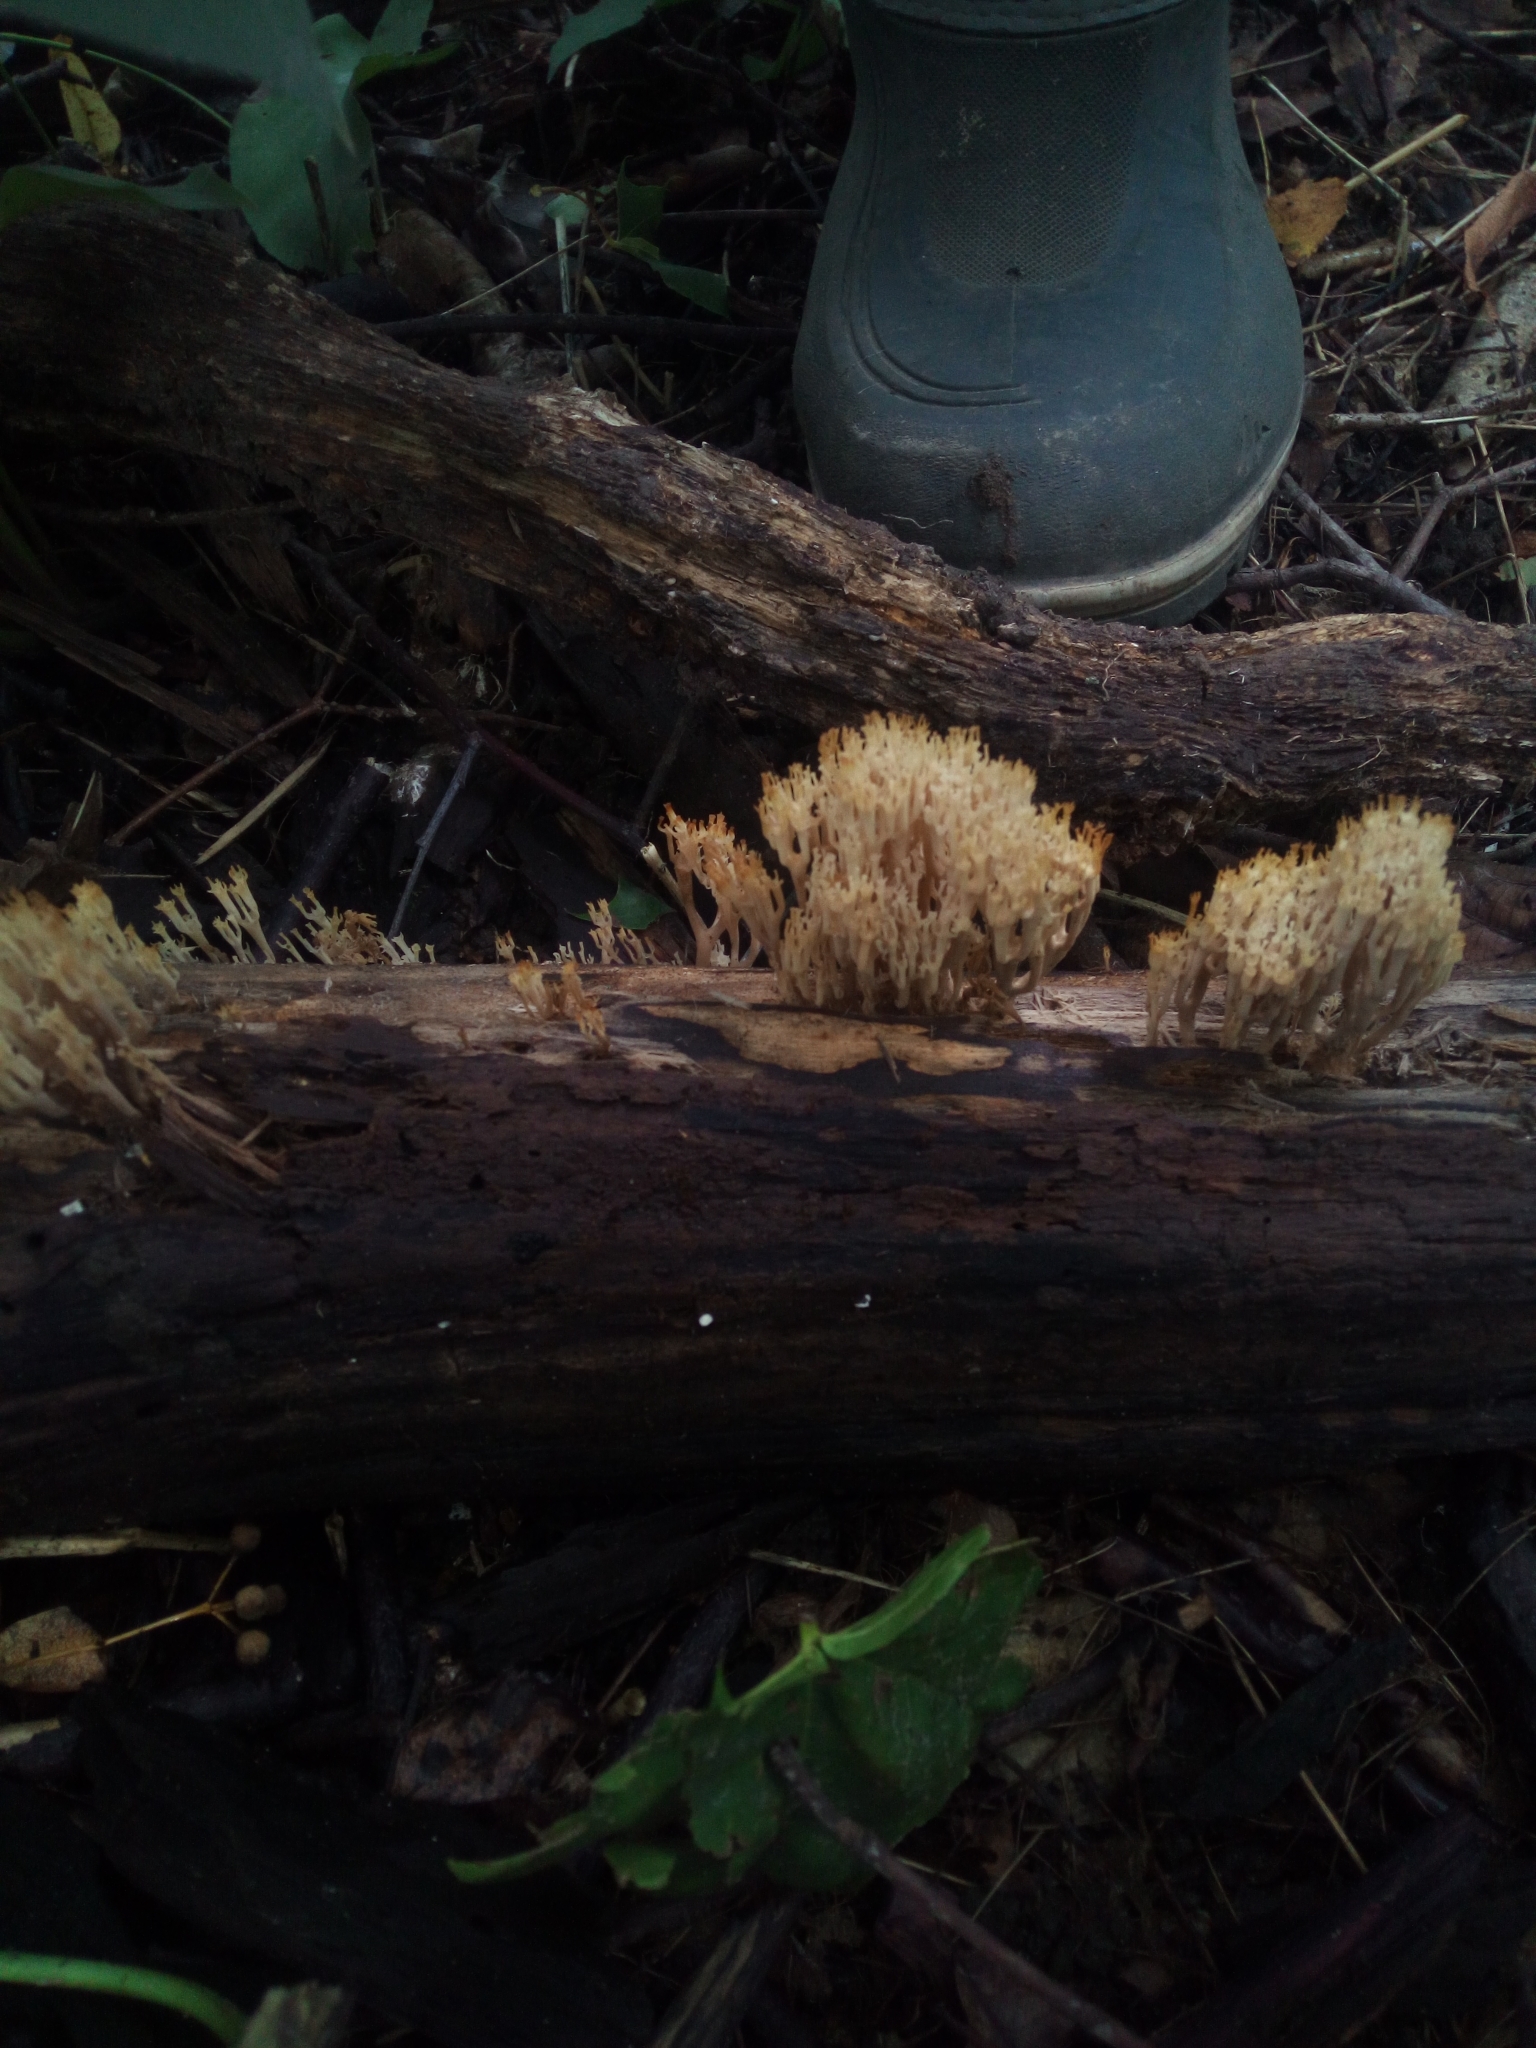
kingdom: Fungi
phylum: Basidiomycota
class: Agaricomycetes
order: Russulales
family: Auriscalpiaceae
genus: Artomyces
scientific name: Artomyces pyxidatus
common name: Crown-tipped coral fungus
